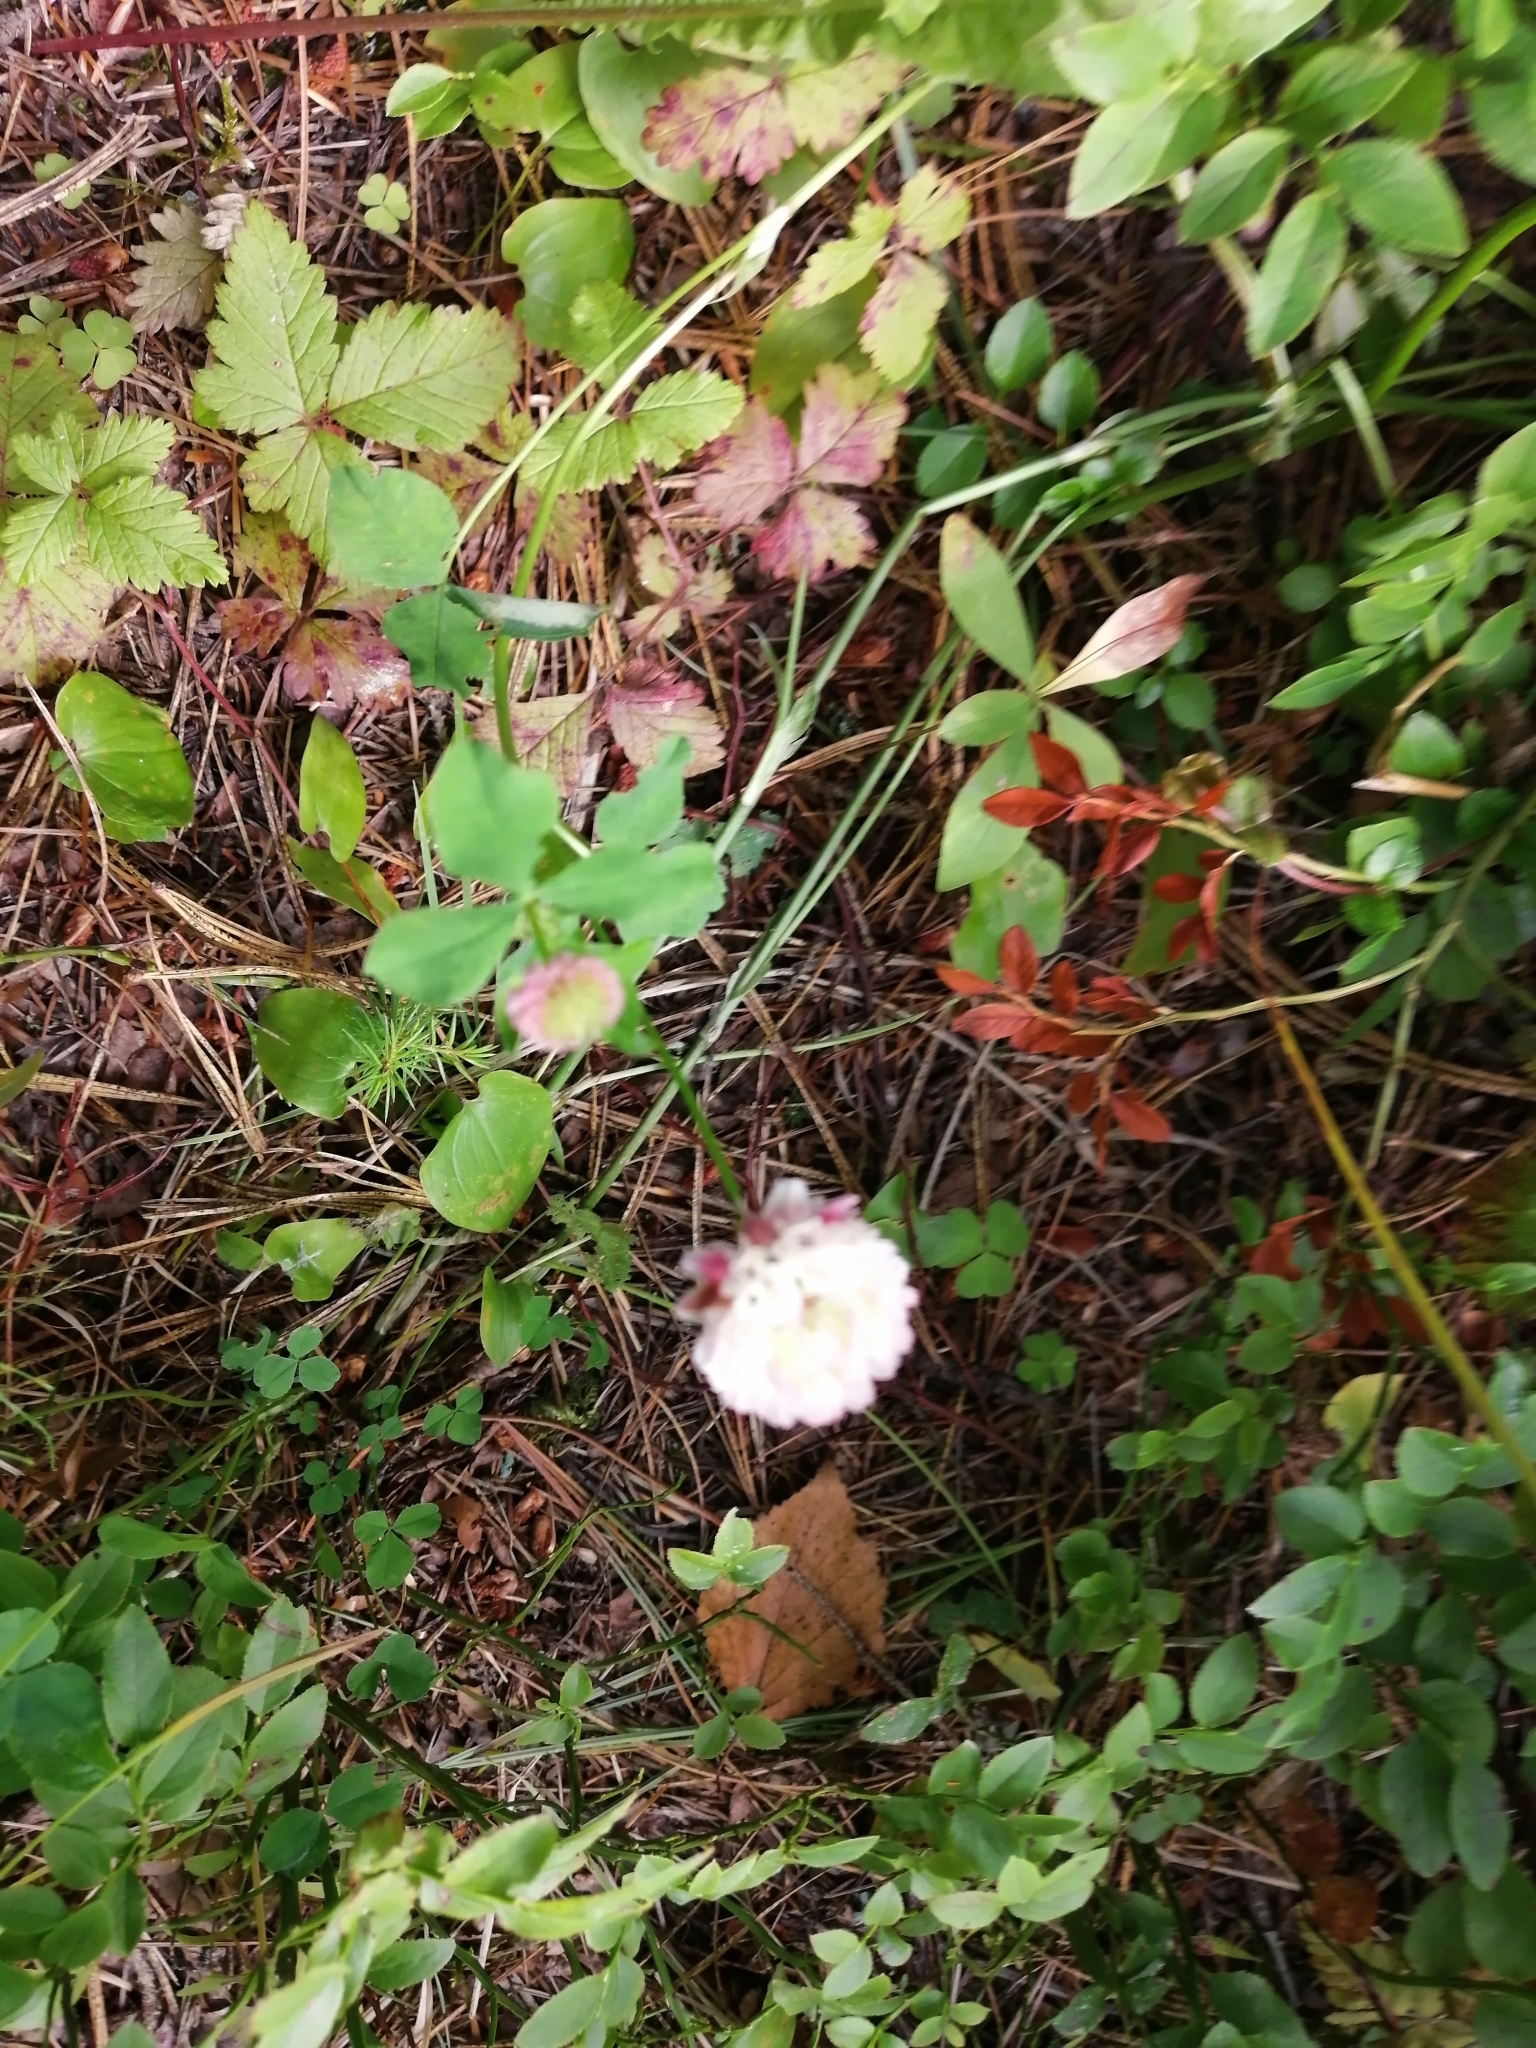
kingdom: Plantae
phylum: Tracheophyta
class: Magnoliopsida
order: Fabales
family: Fabaceae
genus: Trifolium
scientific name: Trifolium hybridum
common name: Alsike clover
